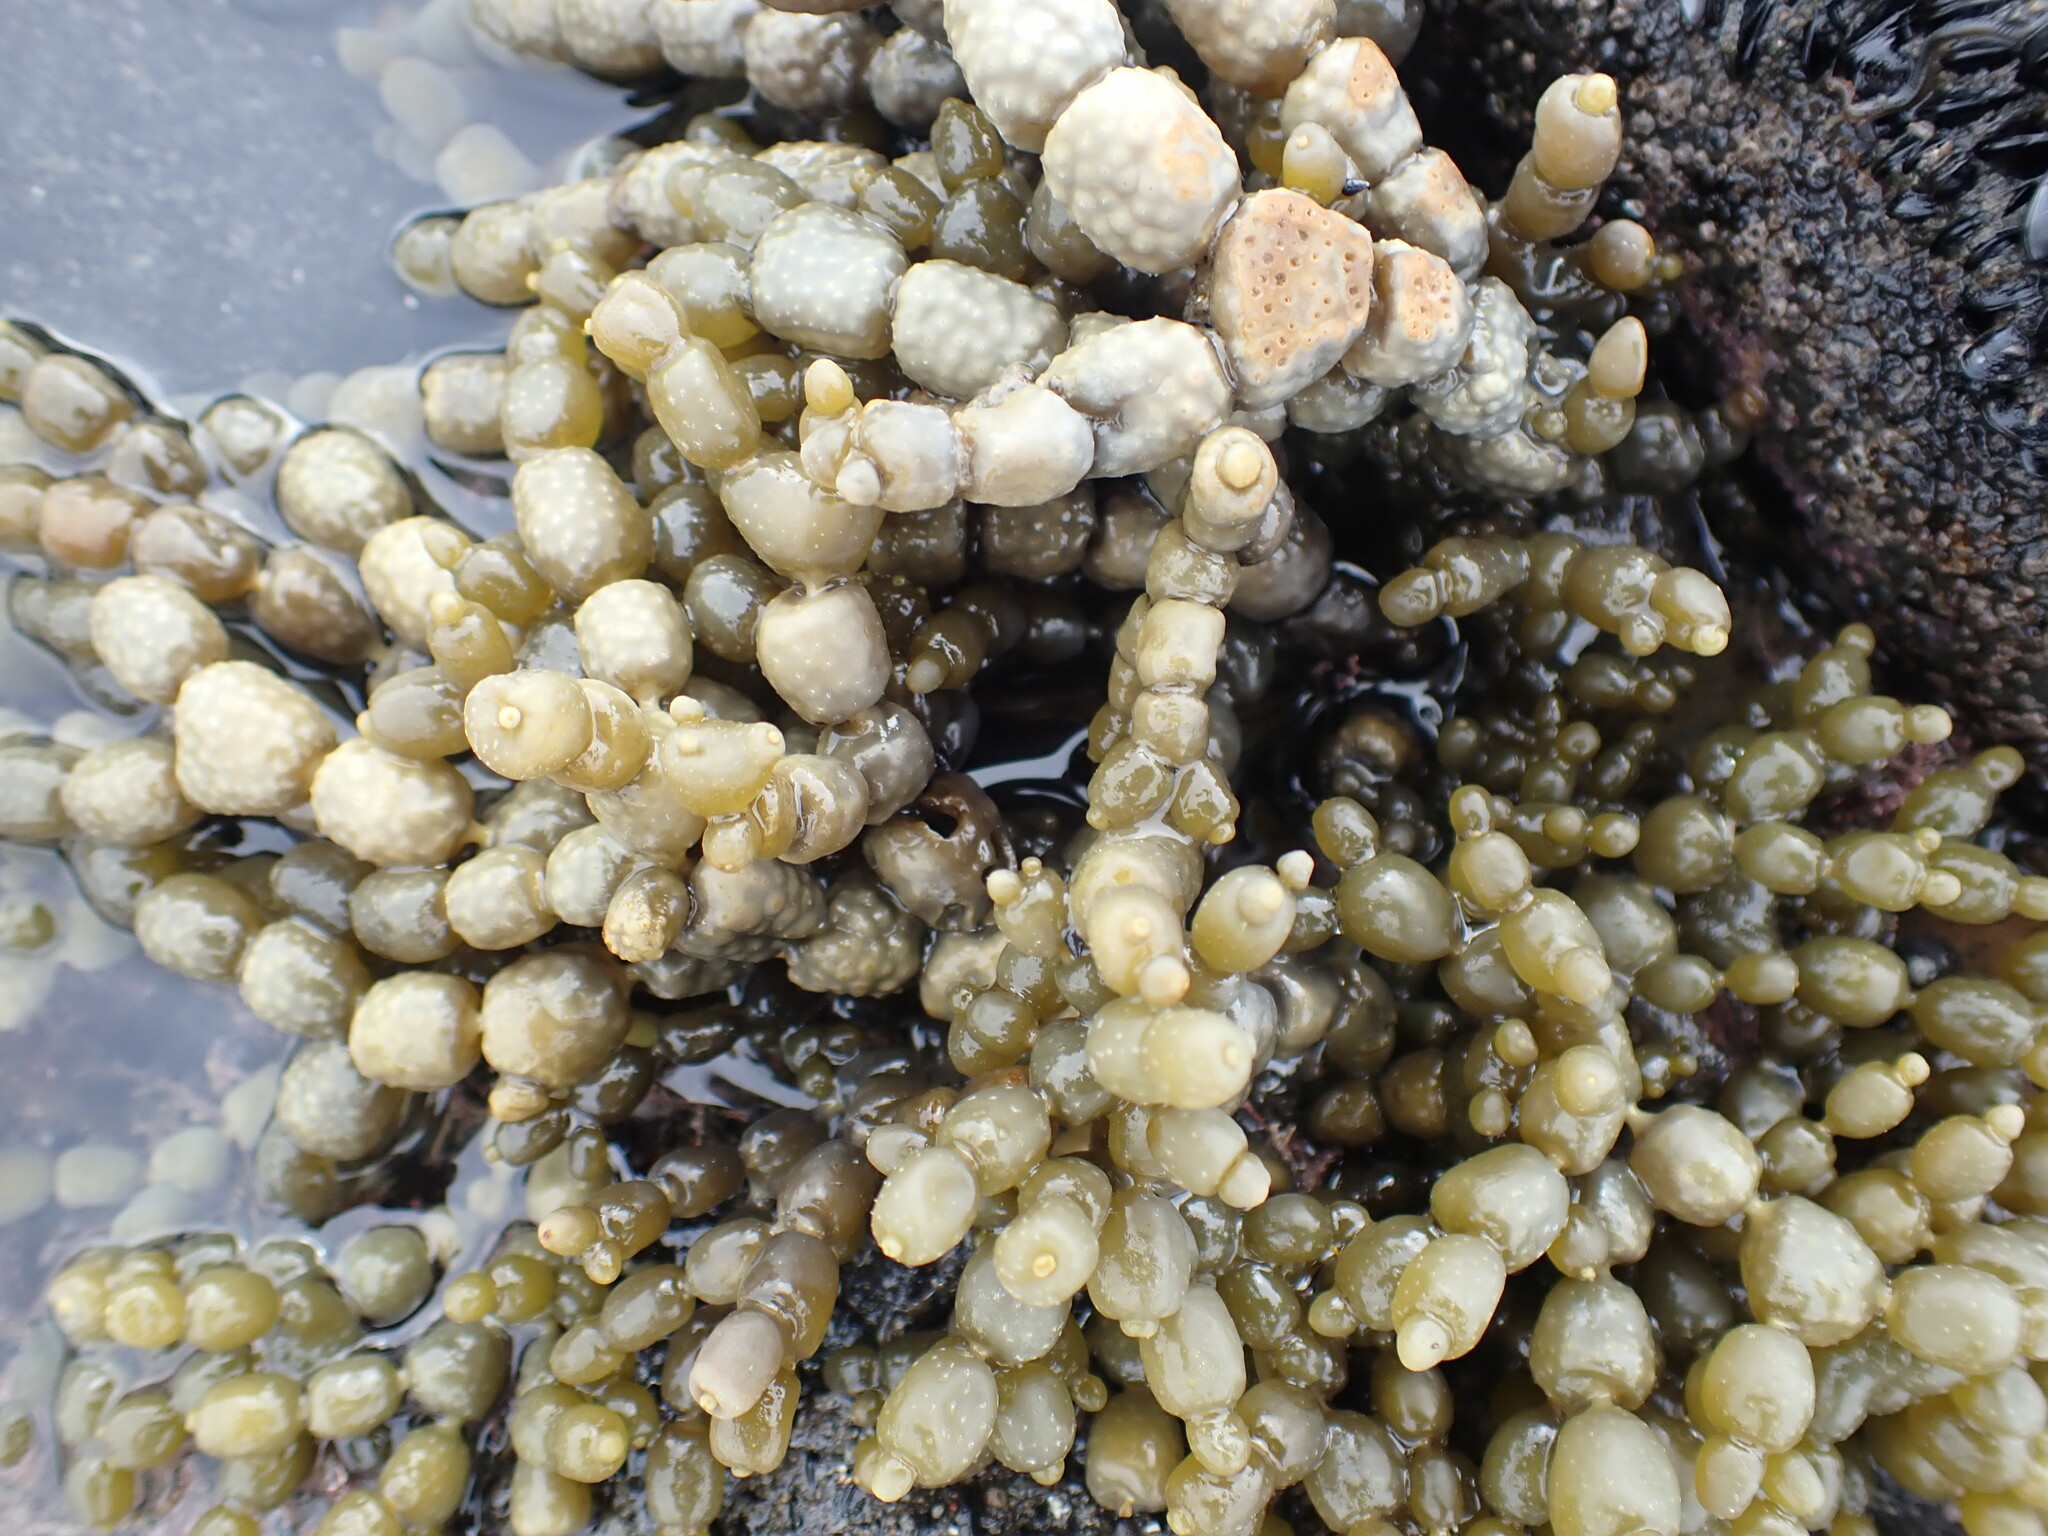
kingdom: Chromista
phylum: Ochrophyta
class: Phaeophyceae
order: Fucales
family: Hormosiraceae
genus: Hormosira
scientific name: Hormosira banksii
